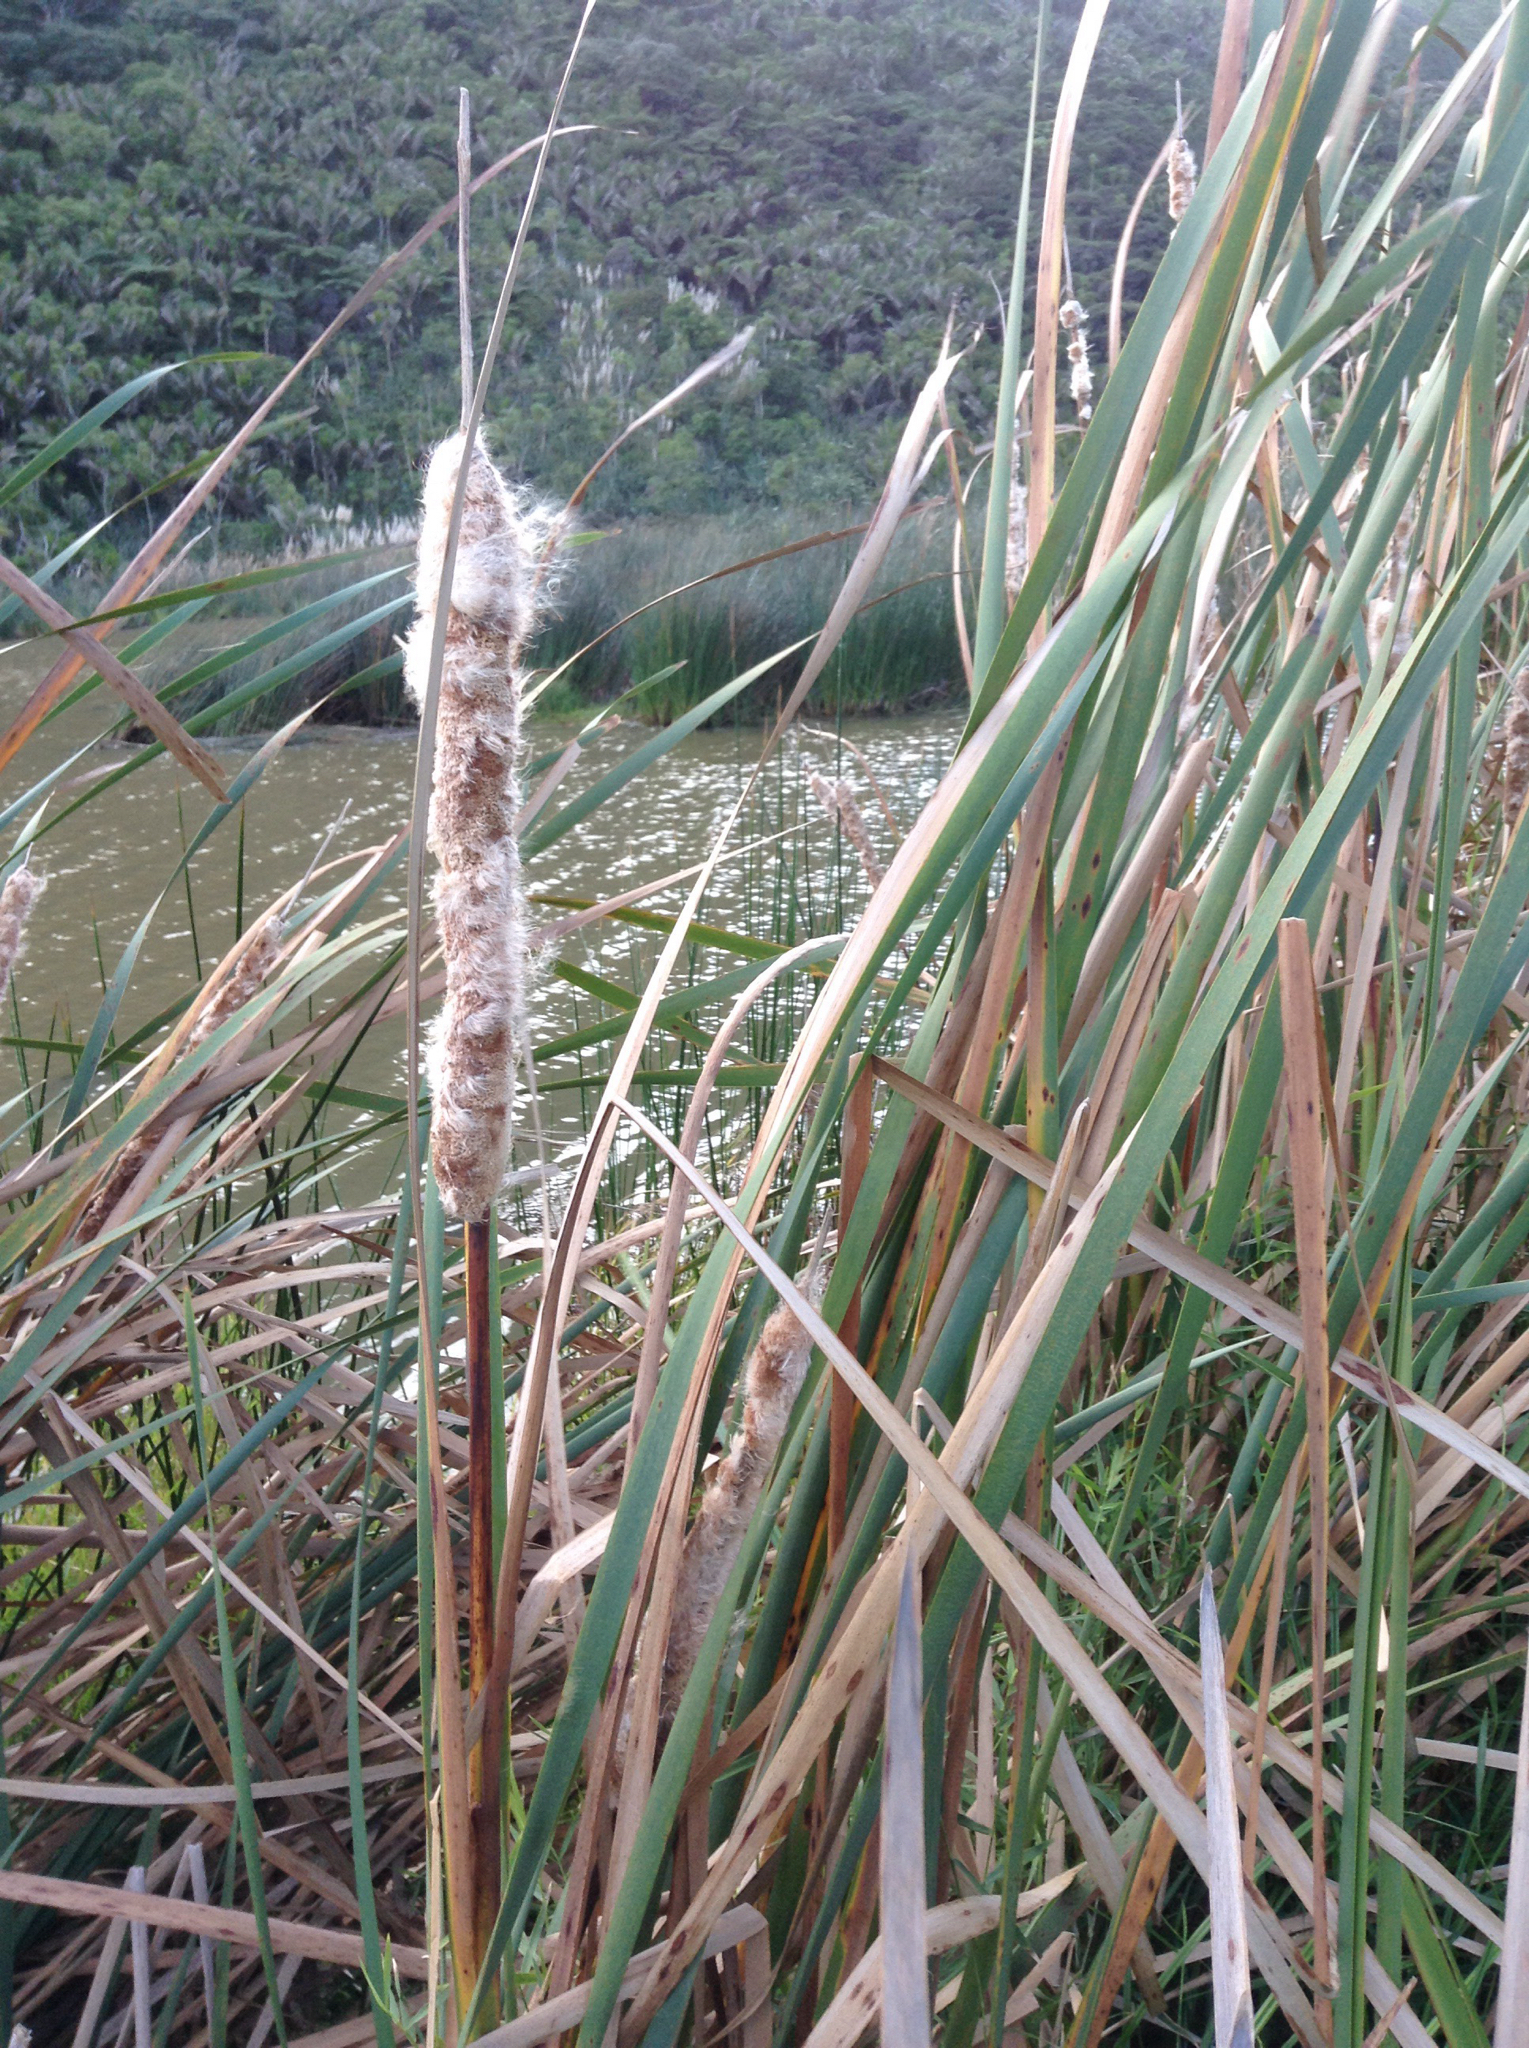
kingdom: Plantae
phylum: Tracheophyta
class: Liliopsida
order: Poales
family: Typhaceae
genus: Typha
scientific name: Typha orientalis
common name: Bullrush
